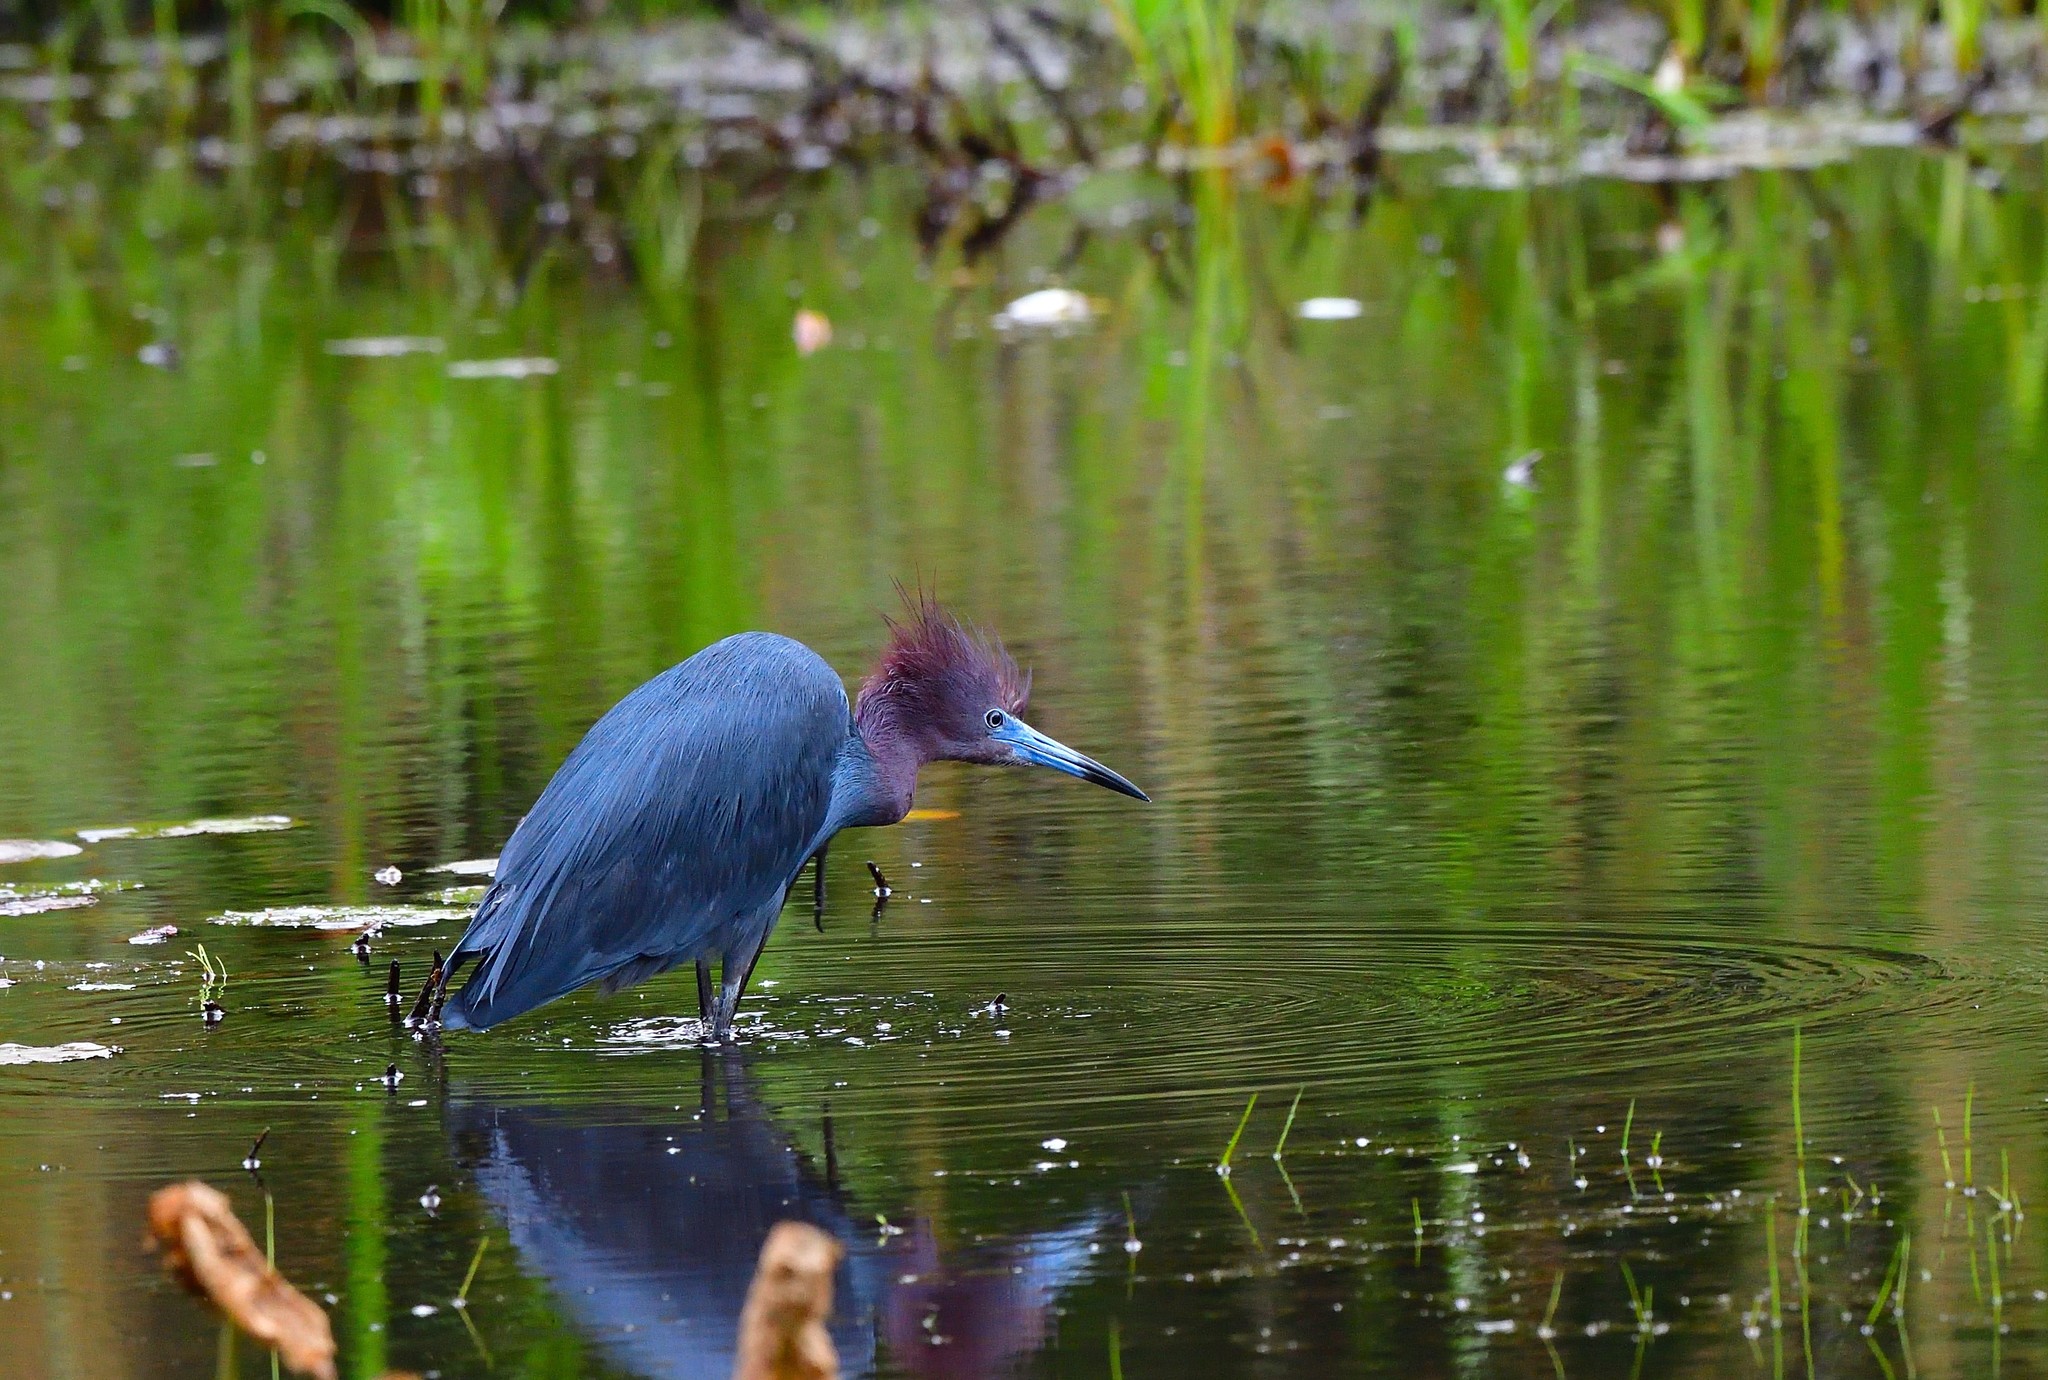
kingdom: Animalia
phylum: Chordata
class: Aves
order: Pelecaniformes
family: Ardeidae
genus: Egretta
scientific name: Egretta caerulea
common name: Little blue heron
